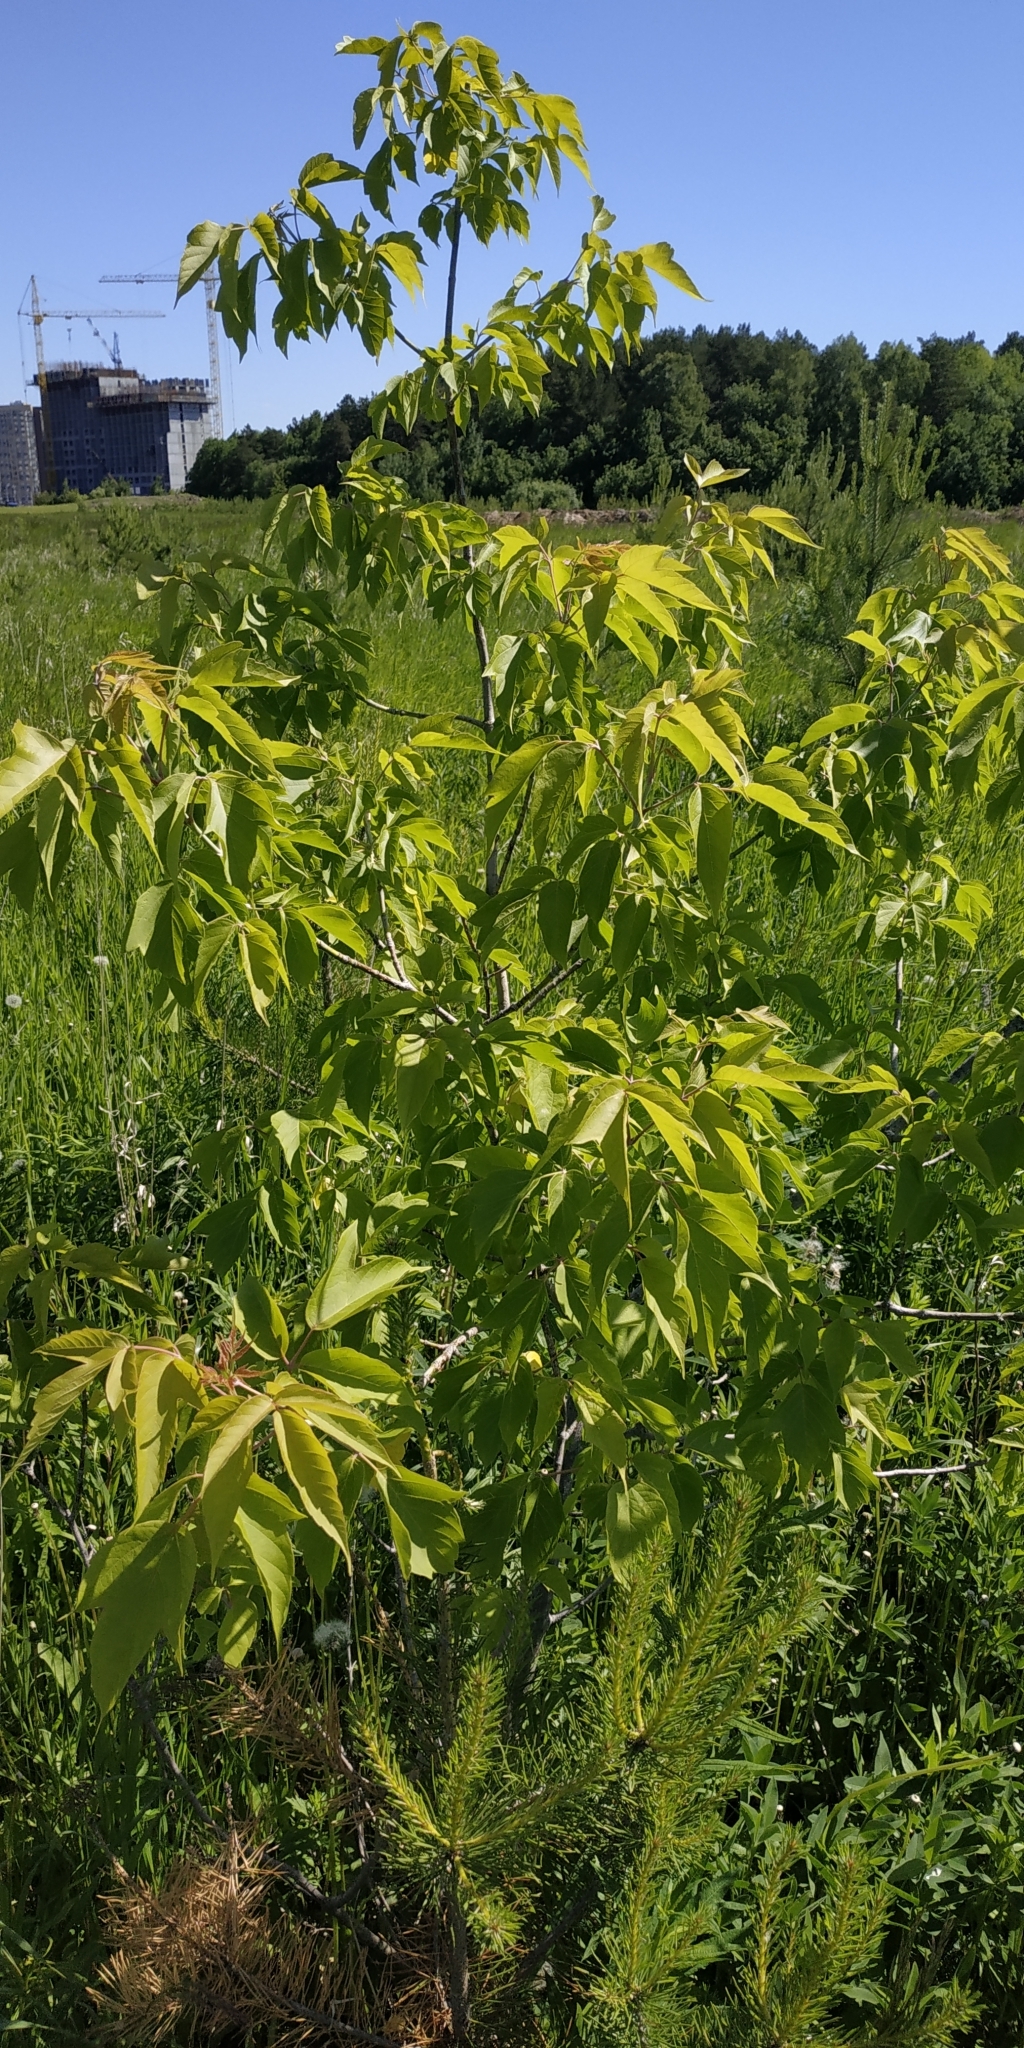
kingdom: Plantae
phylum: Tracheophyta
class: Magnoliopsida
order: Sapindales
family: Sapindaceae
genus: Acer
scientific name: Acer negundo
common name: Ashleaf maple
